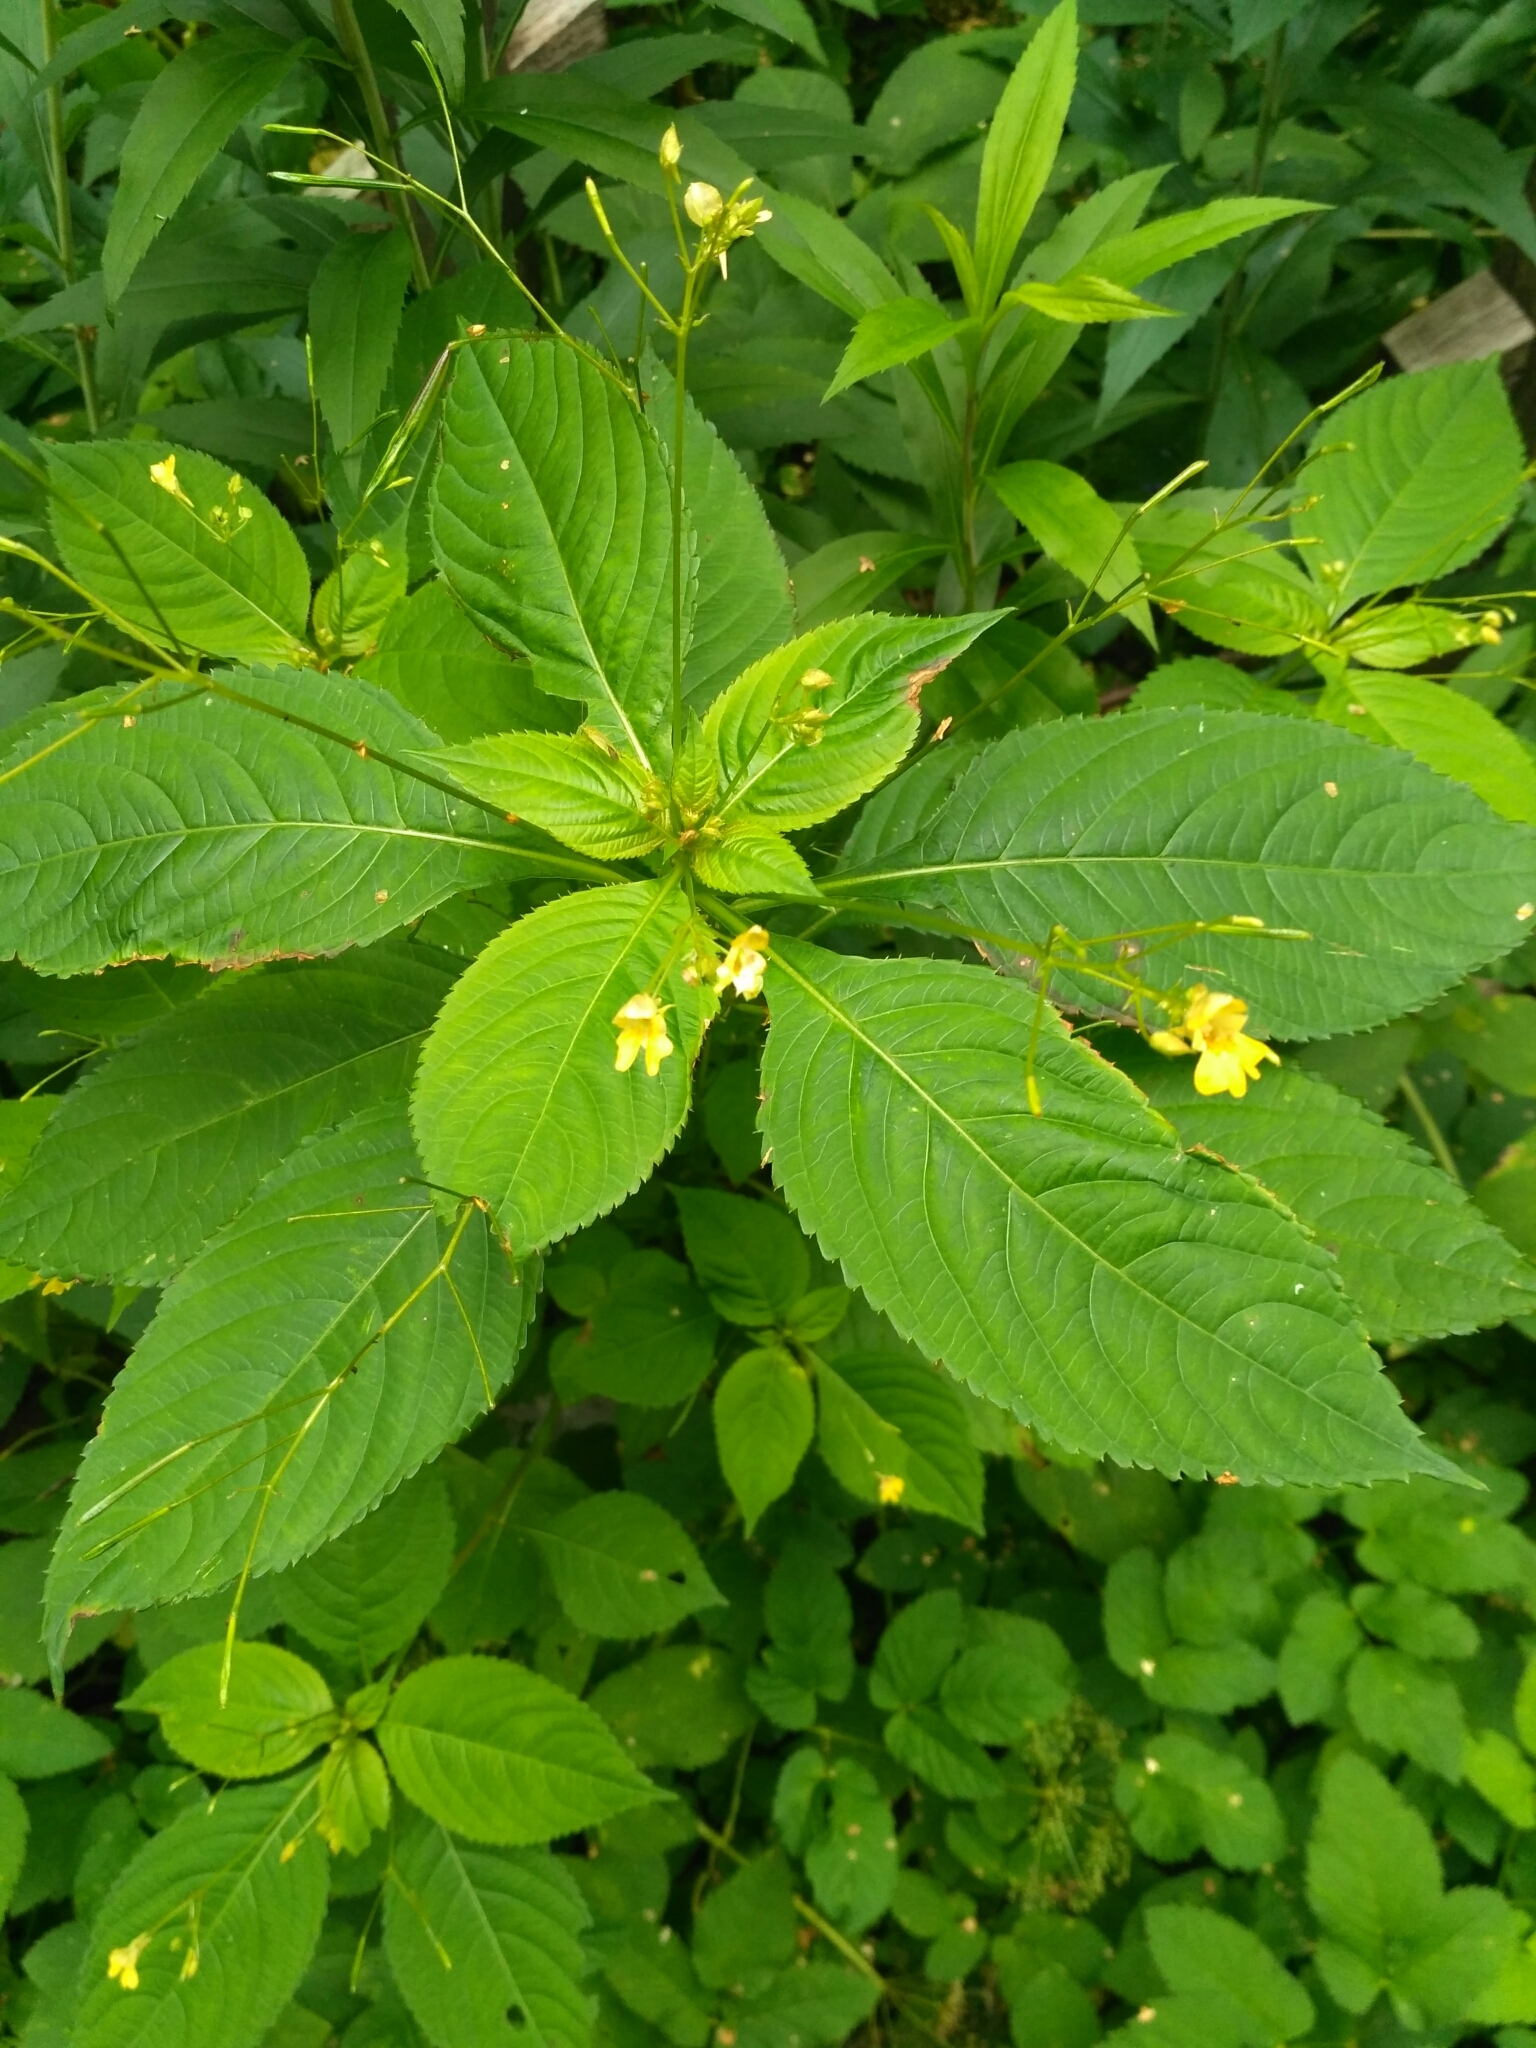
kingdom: Plantae
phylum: Tracheophyta
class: Magnoliopsida
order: Ericales
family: Balsaminaceae
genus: Impatiens
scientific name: Impatiens parviflora
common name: Small balsam
